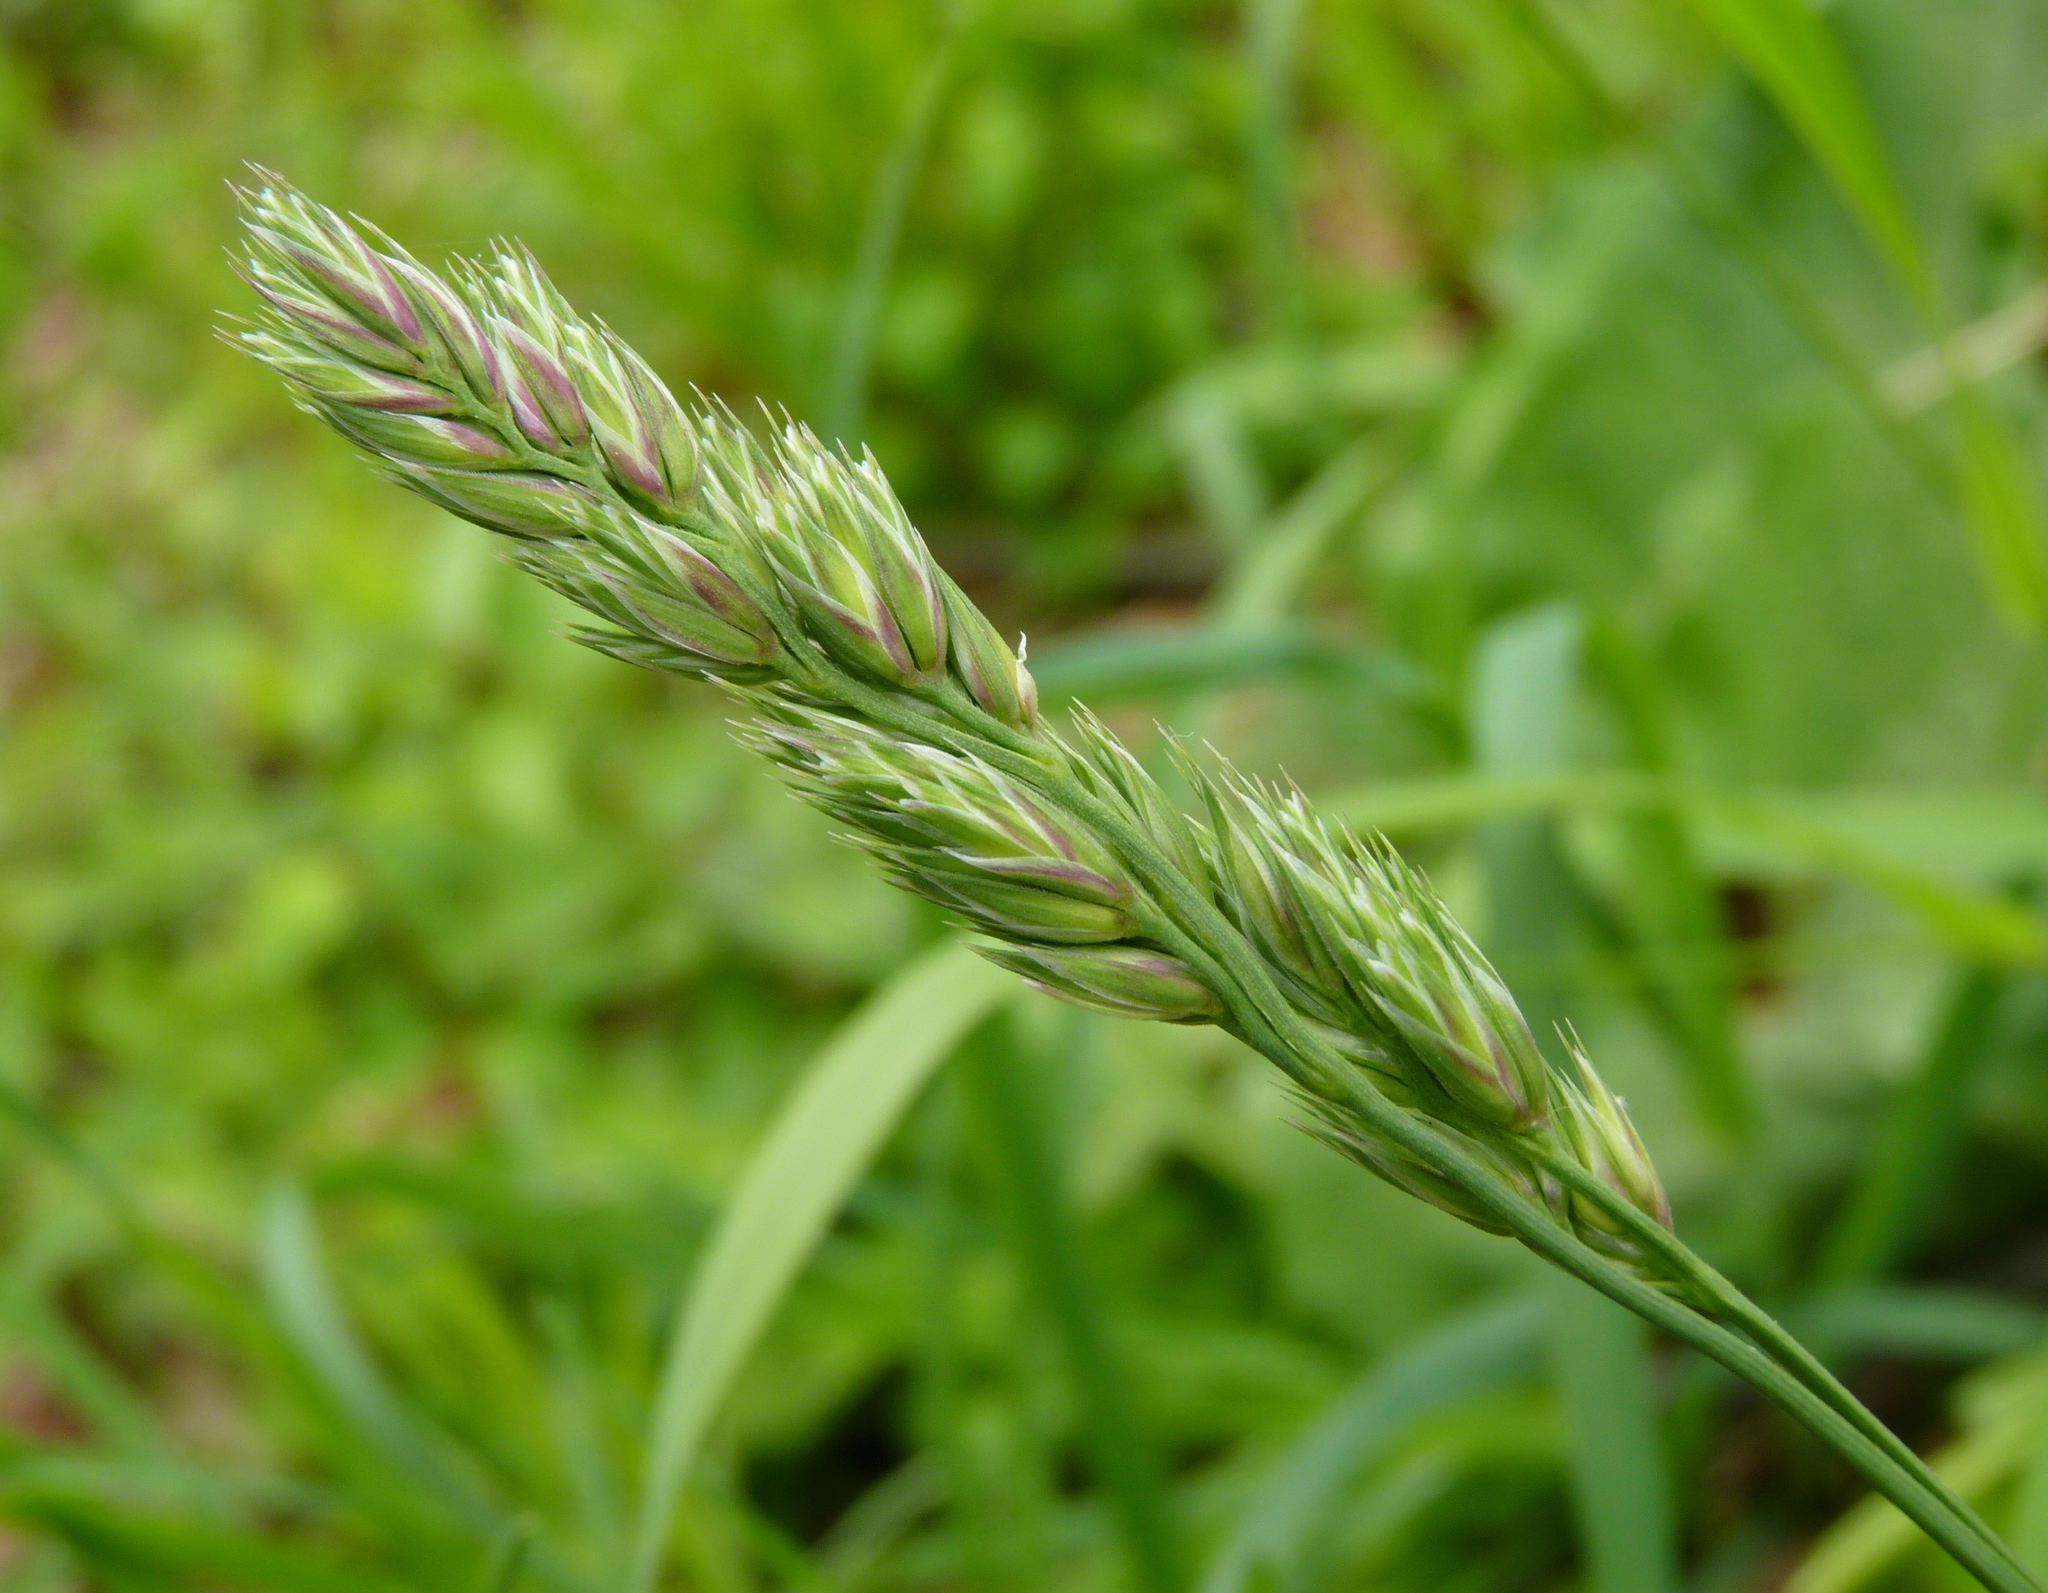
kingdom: Plantae
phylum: Tracheophyta
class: Liliopsida
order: Poales
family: Poaceae
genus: Dactylis
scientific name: Dactylis glomerata
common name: Orchardgrass
